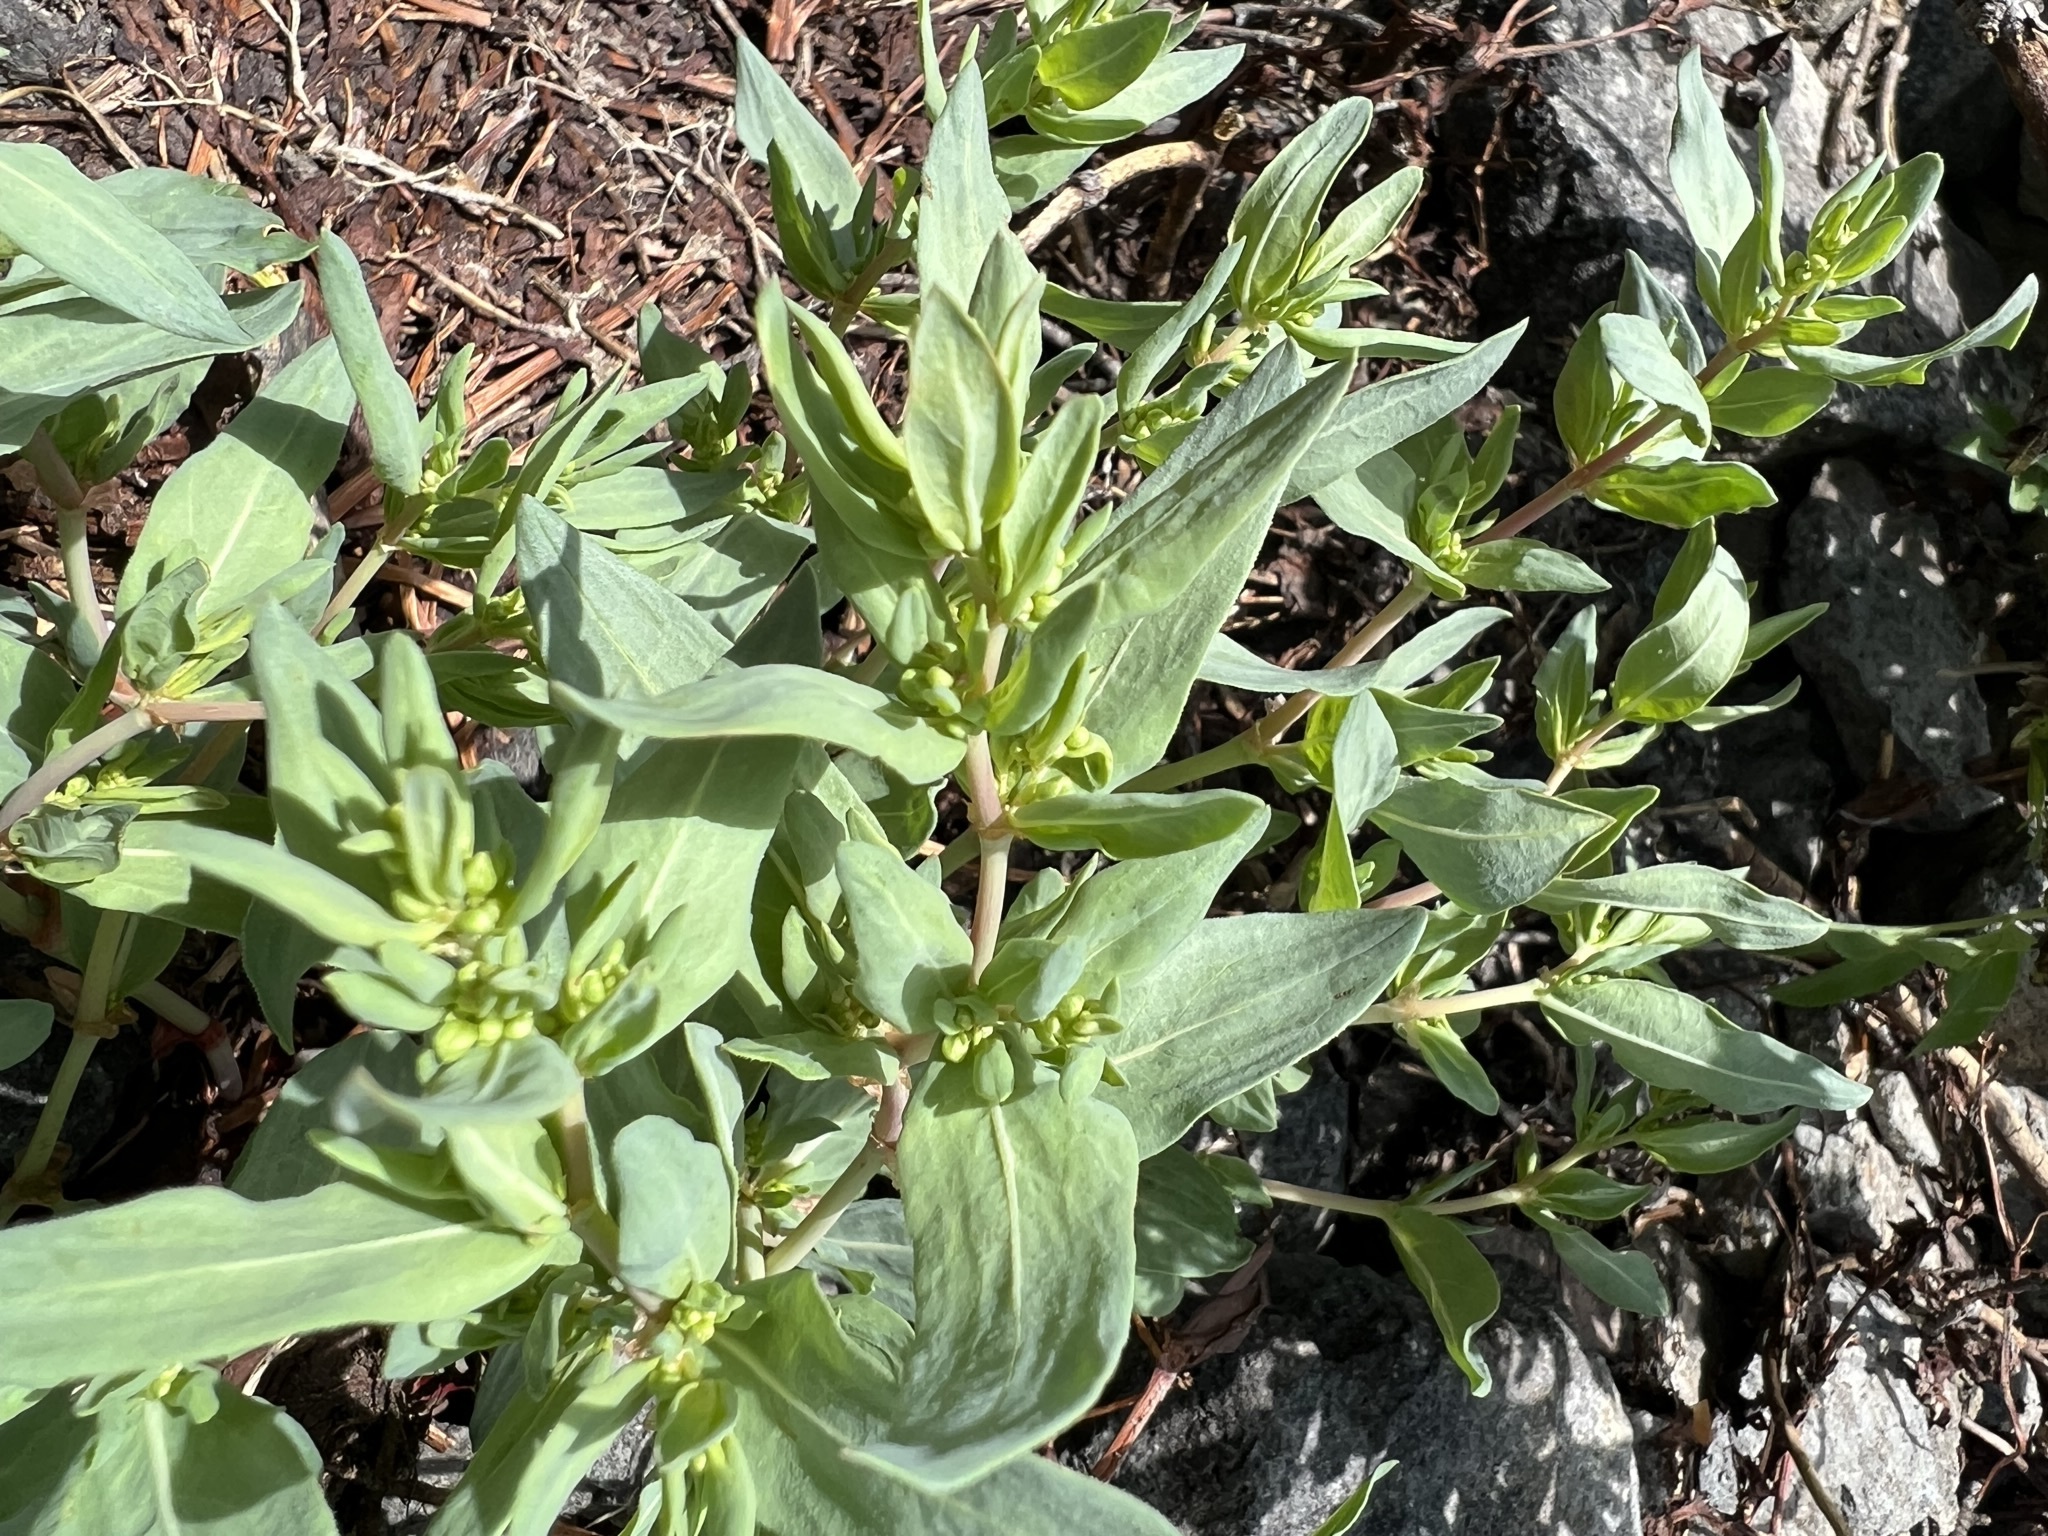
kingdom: Plantae
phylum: Tracheophyta
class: Magnoliopsida
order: Caryophyllales
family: Polygonaceae
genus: Koenigia
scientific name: Koenigia davisiae
